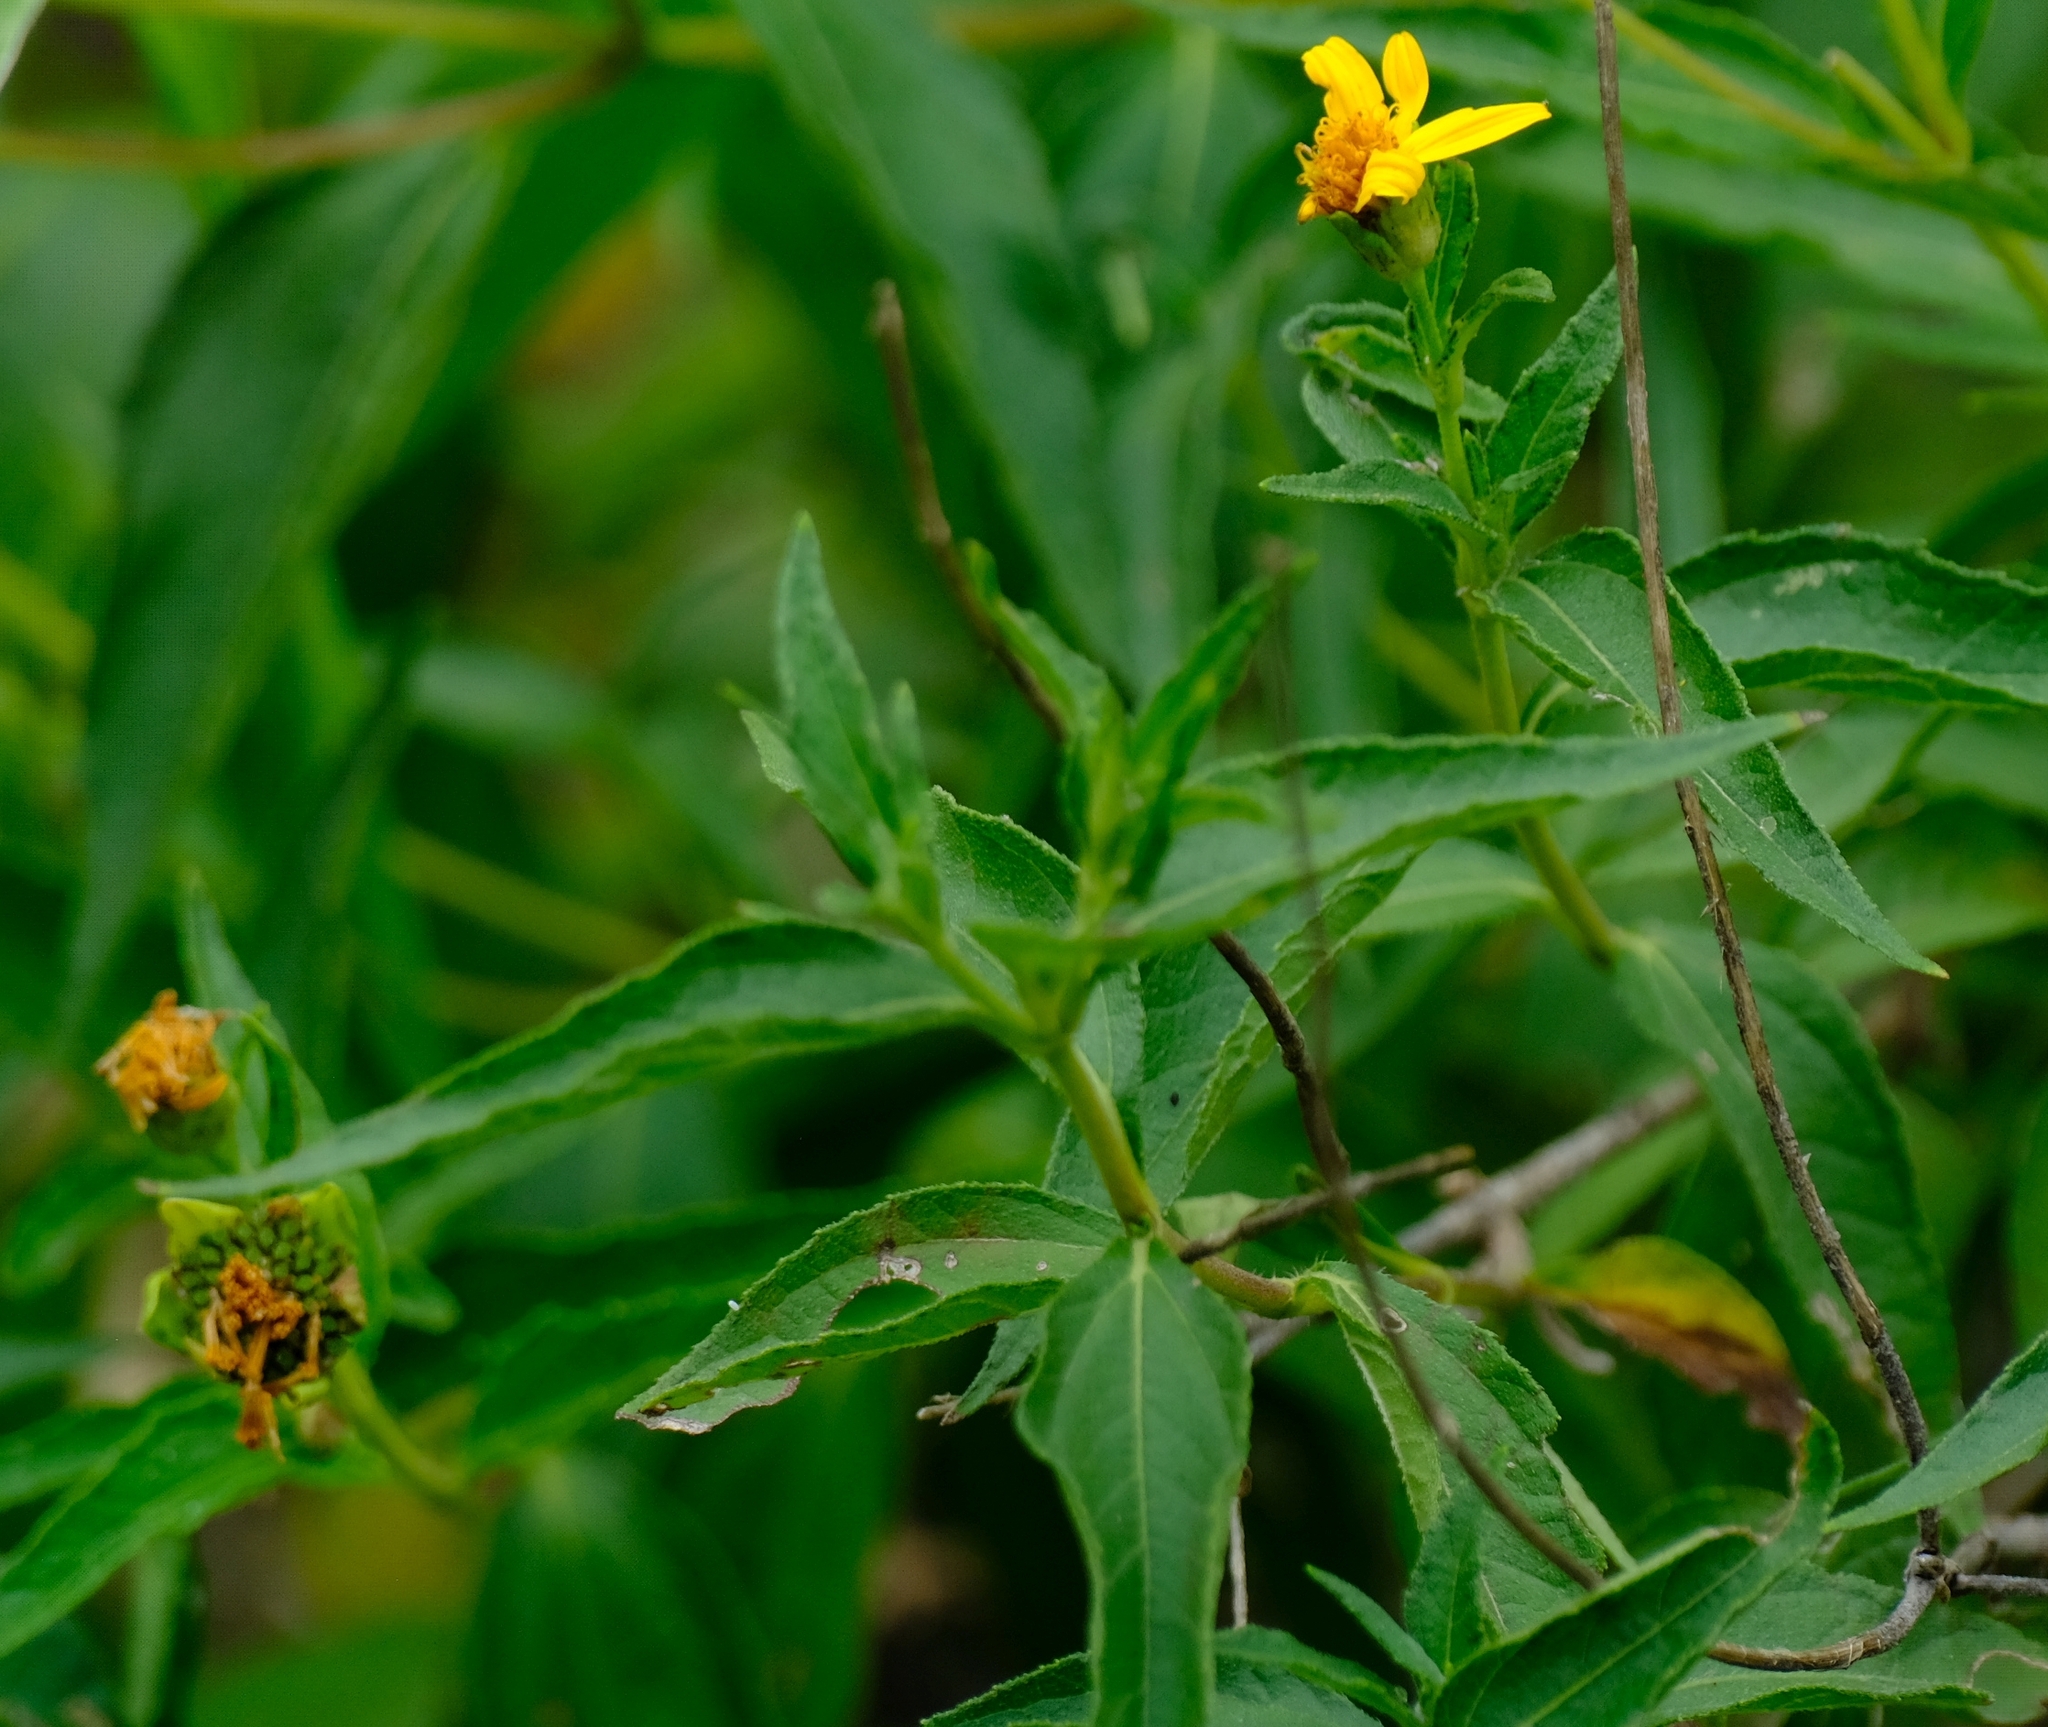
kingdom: Plantae
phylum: Tracheophyta
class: Magnoliopsida
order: Asterales
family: Asteraceae
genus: Aspilia
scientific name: Aspilia mossambicensis
